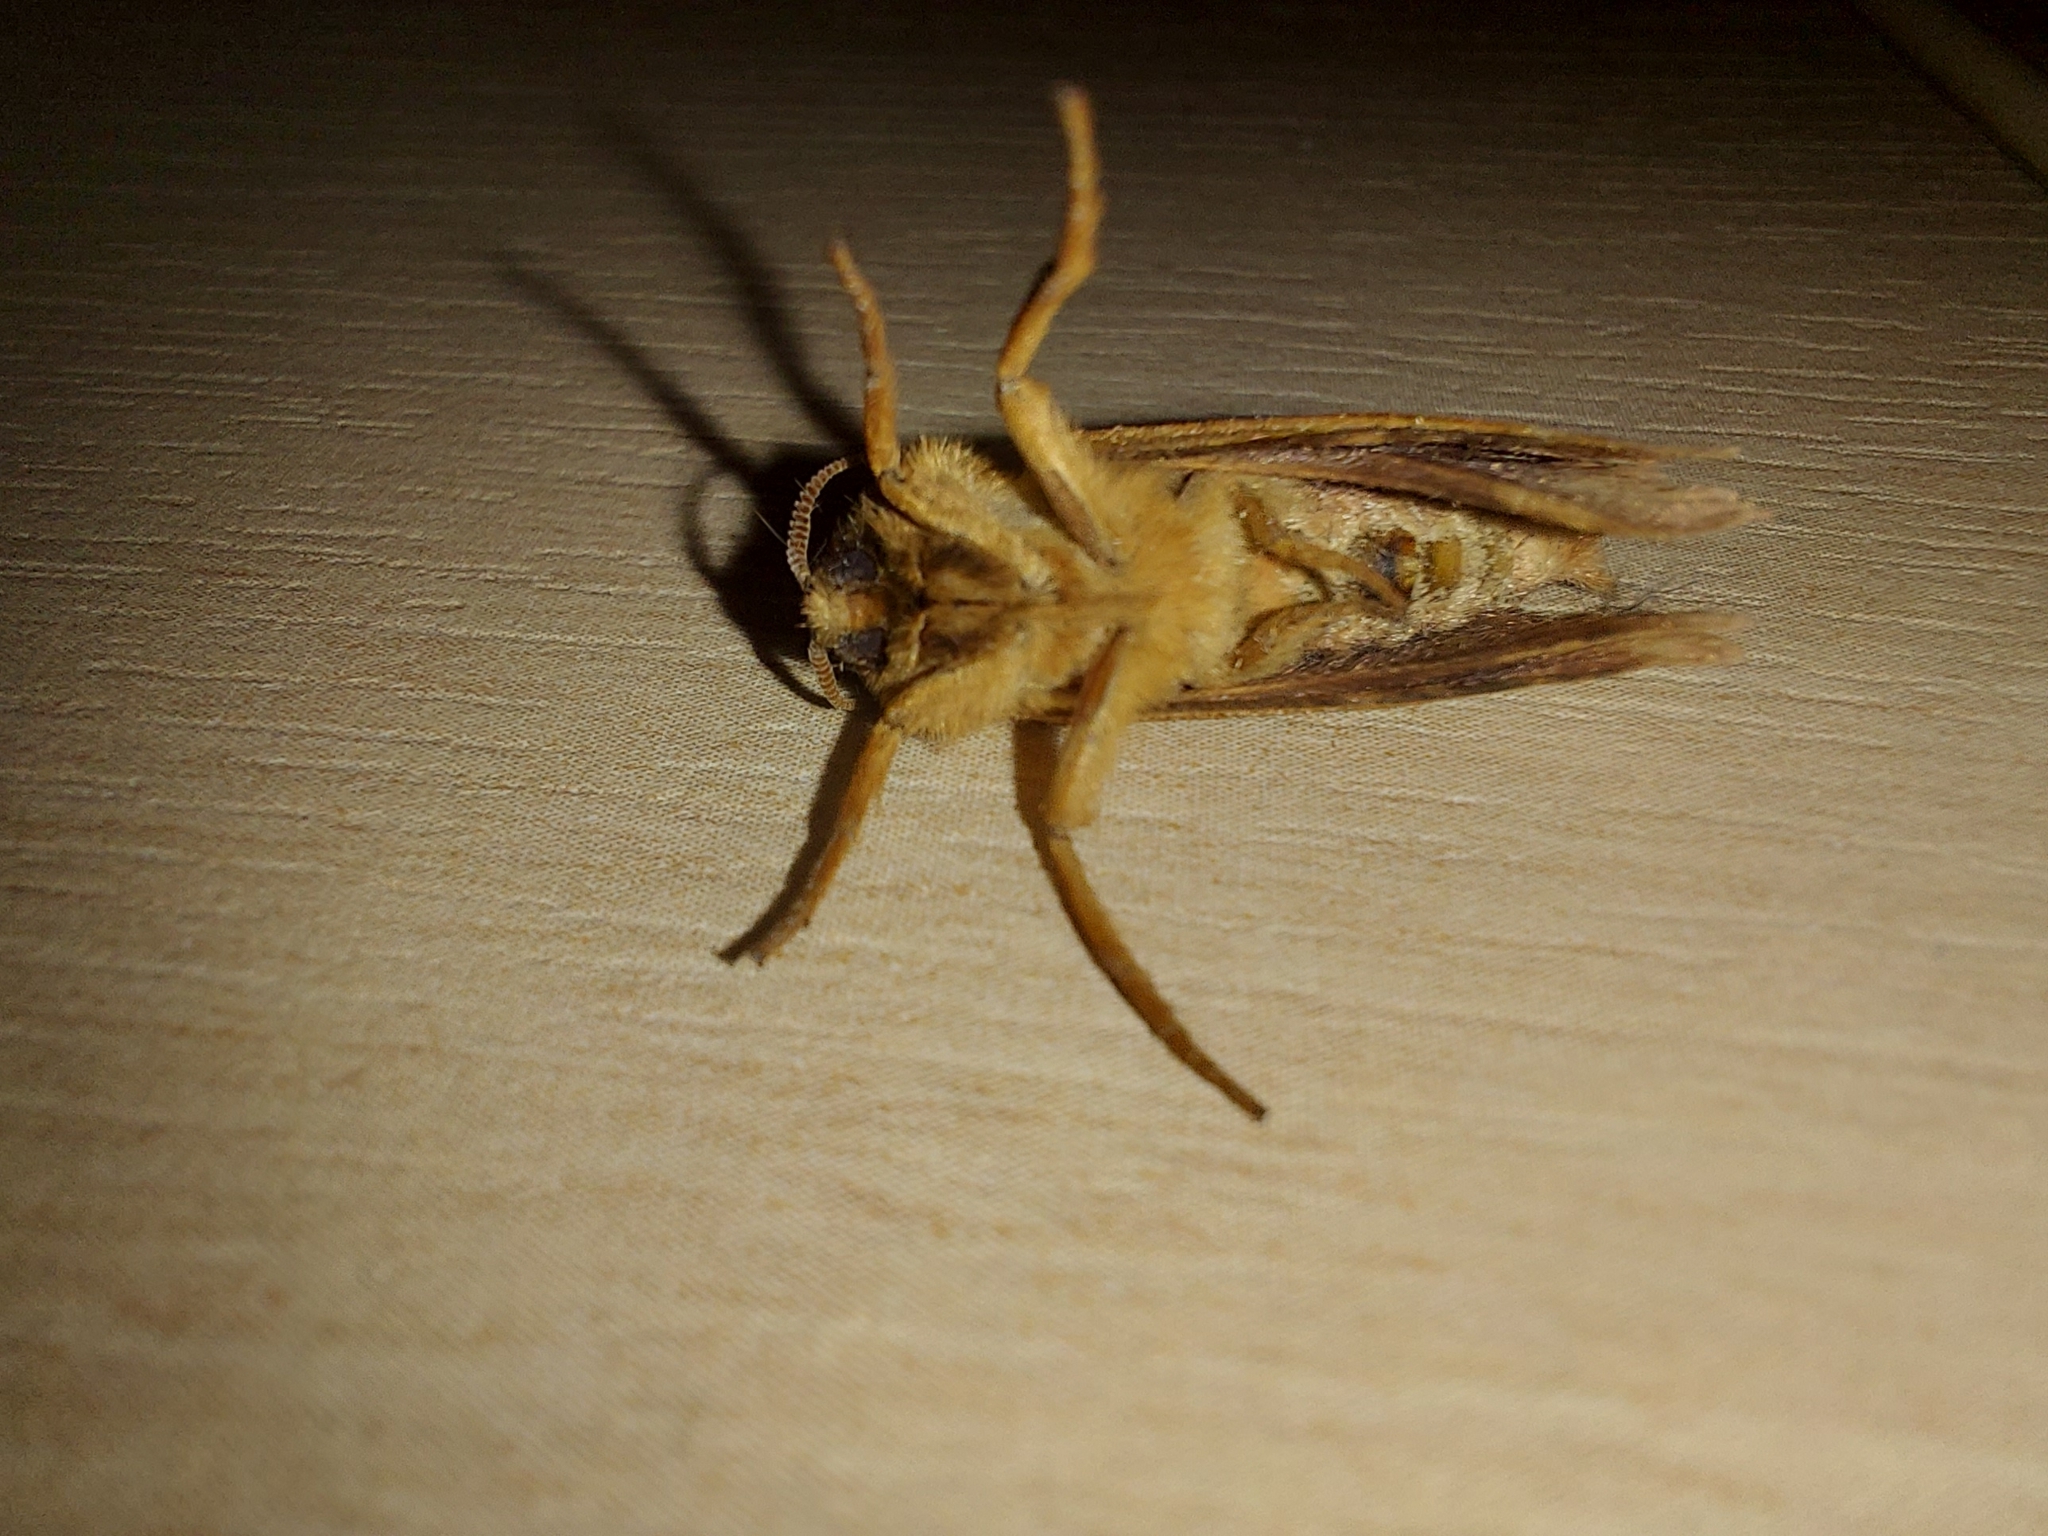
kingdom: Animalia
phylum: Arthropoda
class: Insecta
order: Lepidoptera
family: Hepialidae
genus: Triodia
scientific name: Triodia sylvina
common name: Orange swift
